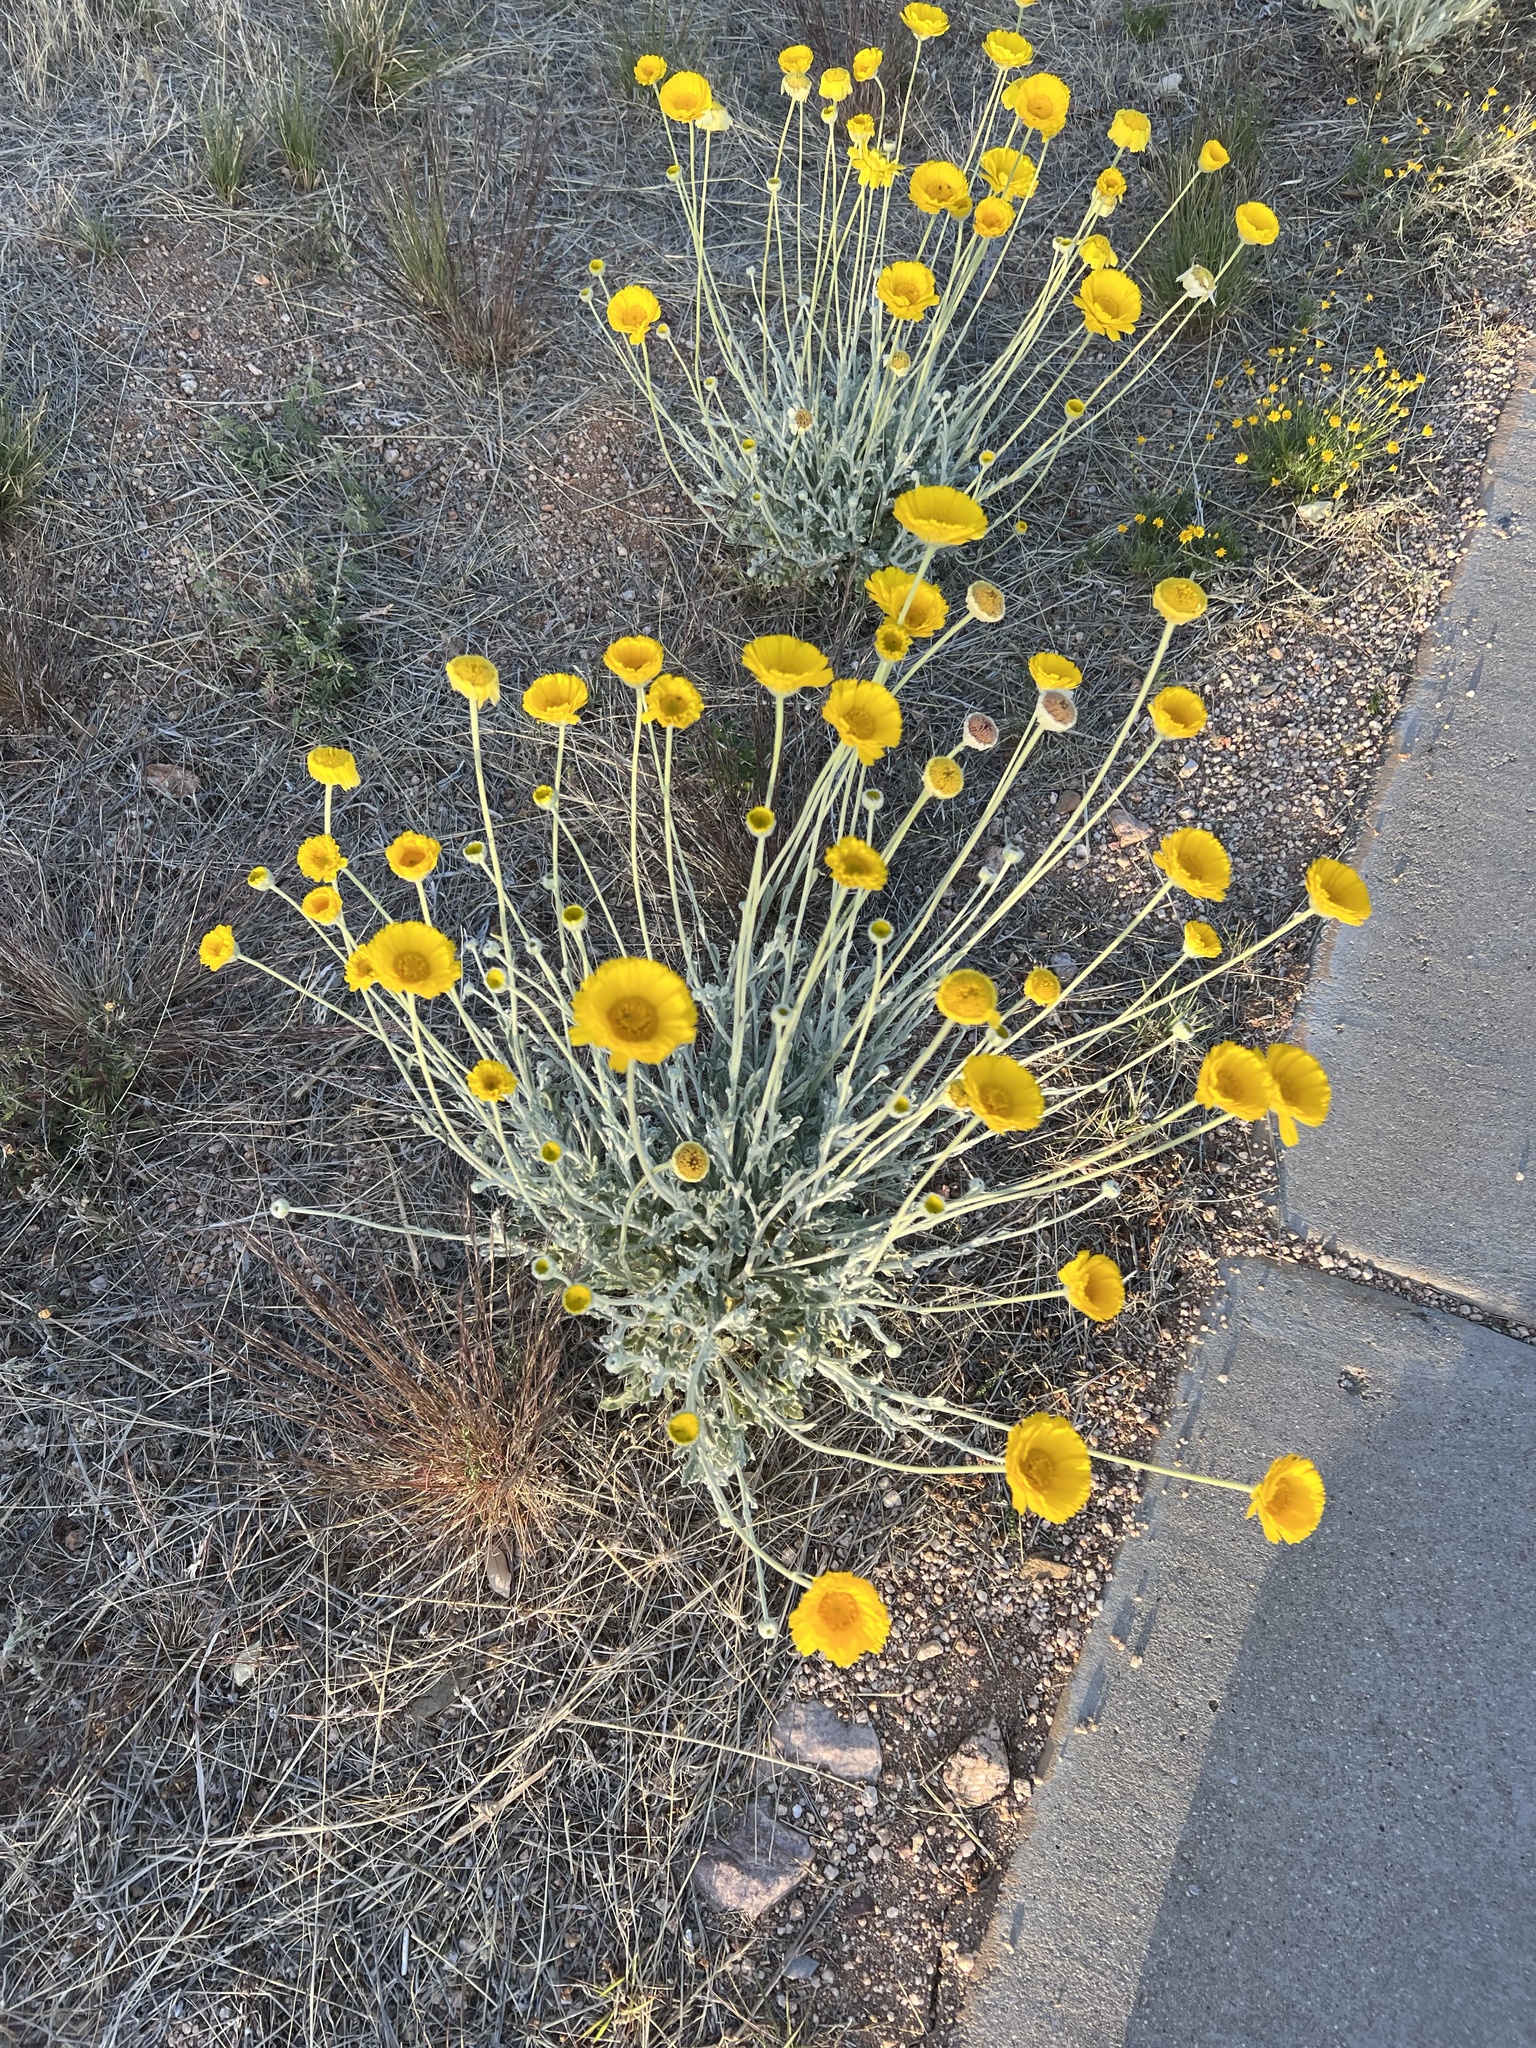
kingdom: Plantae
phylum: Tracheophyta
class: Magnoliopsida
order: Asterales
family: Asteraceae
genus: Baileya
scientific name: Baileya multiradiata
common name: Desert-marigold
